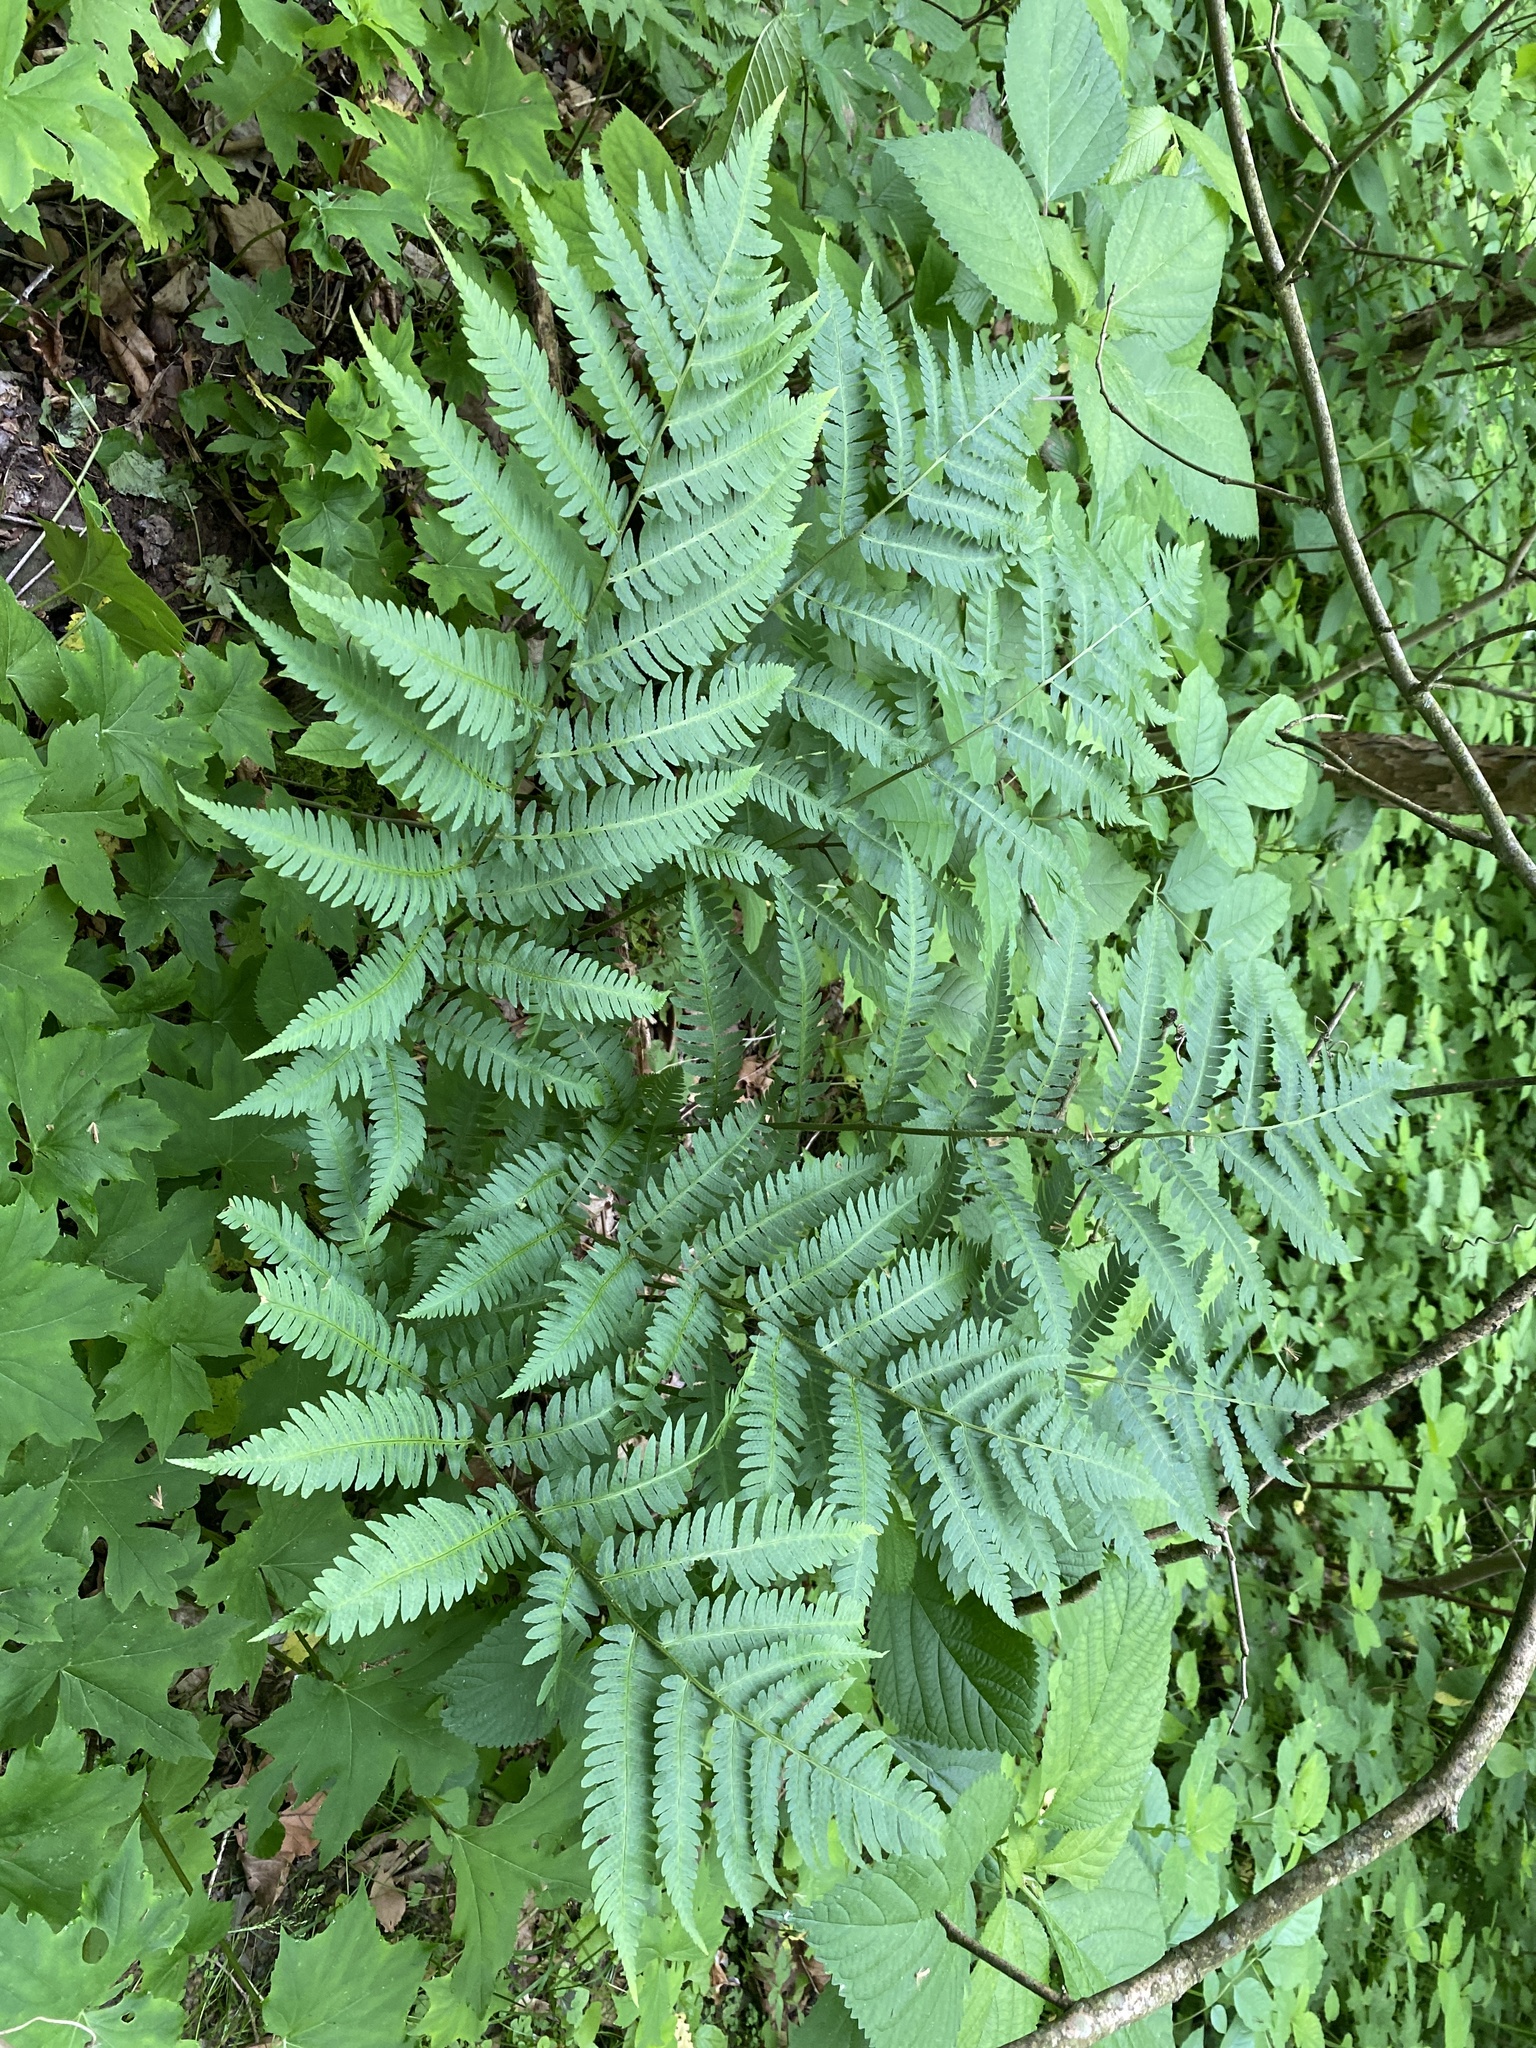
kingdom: Plantae
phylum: Tracheophyta
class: Polypodiopsida
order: Polypodiales
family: Dryopteridaceae
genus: Dryopteris
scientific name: Dryopteris goldieana
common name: Goldie's fern
